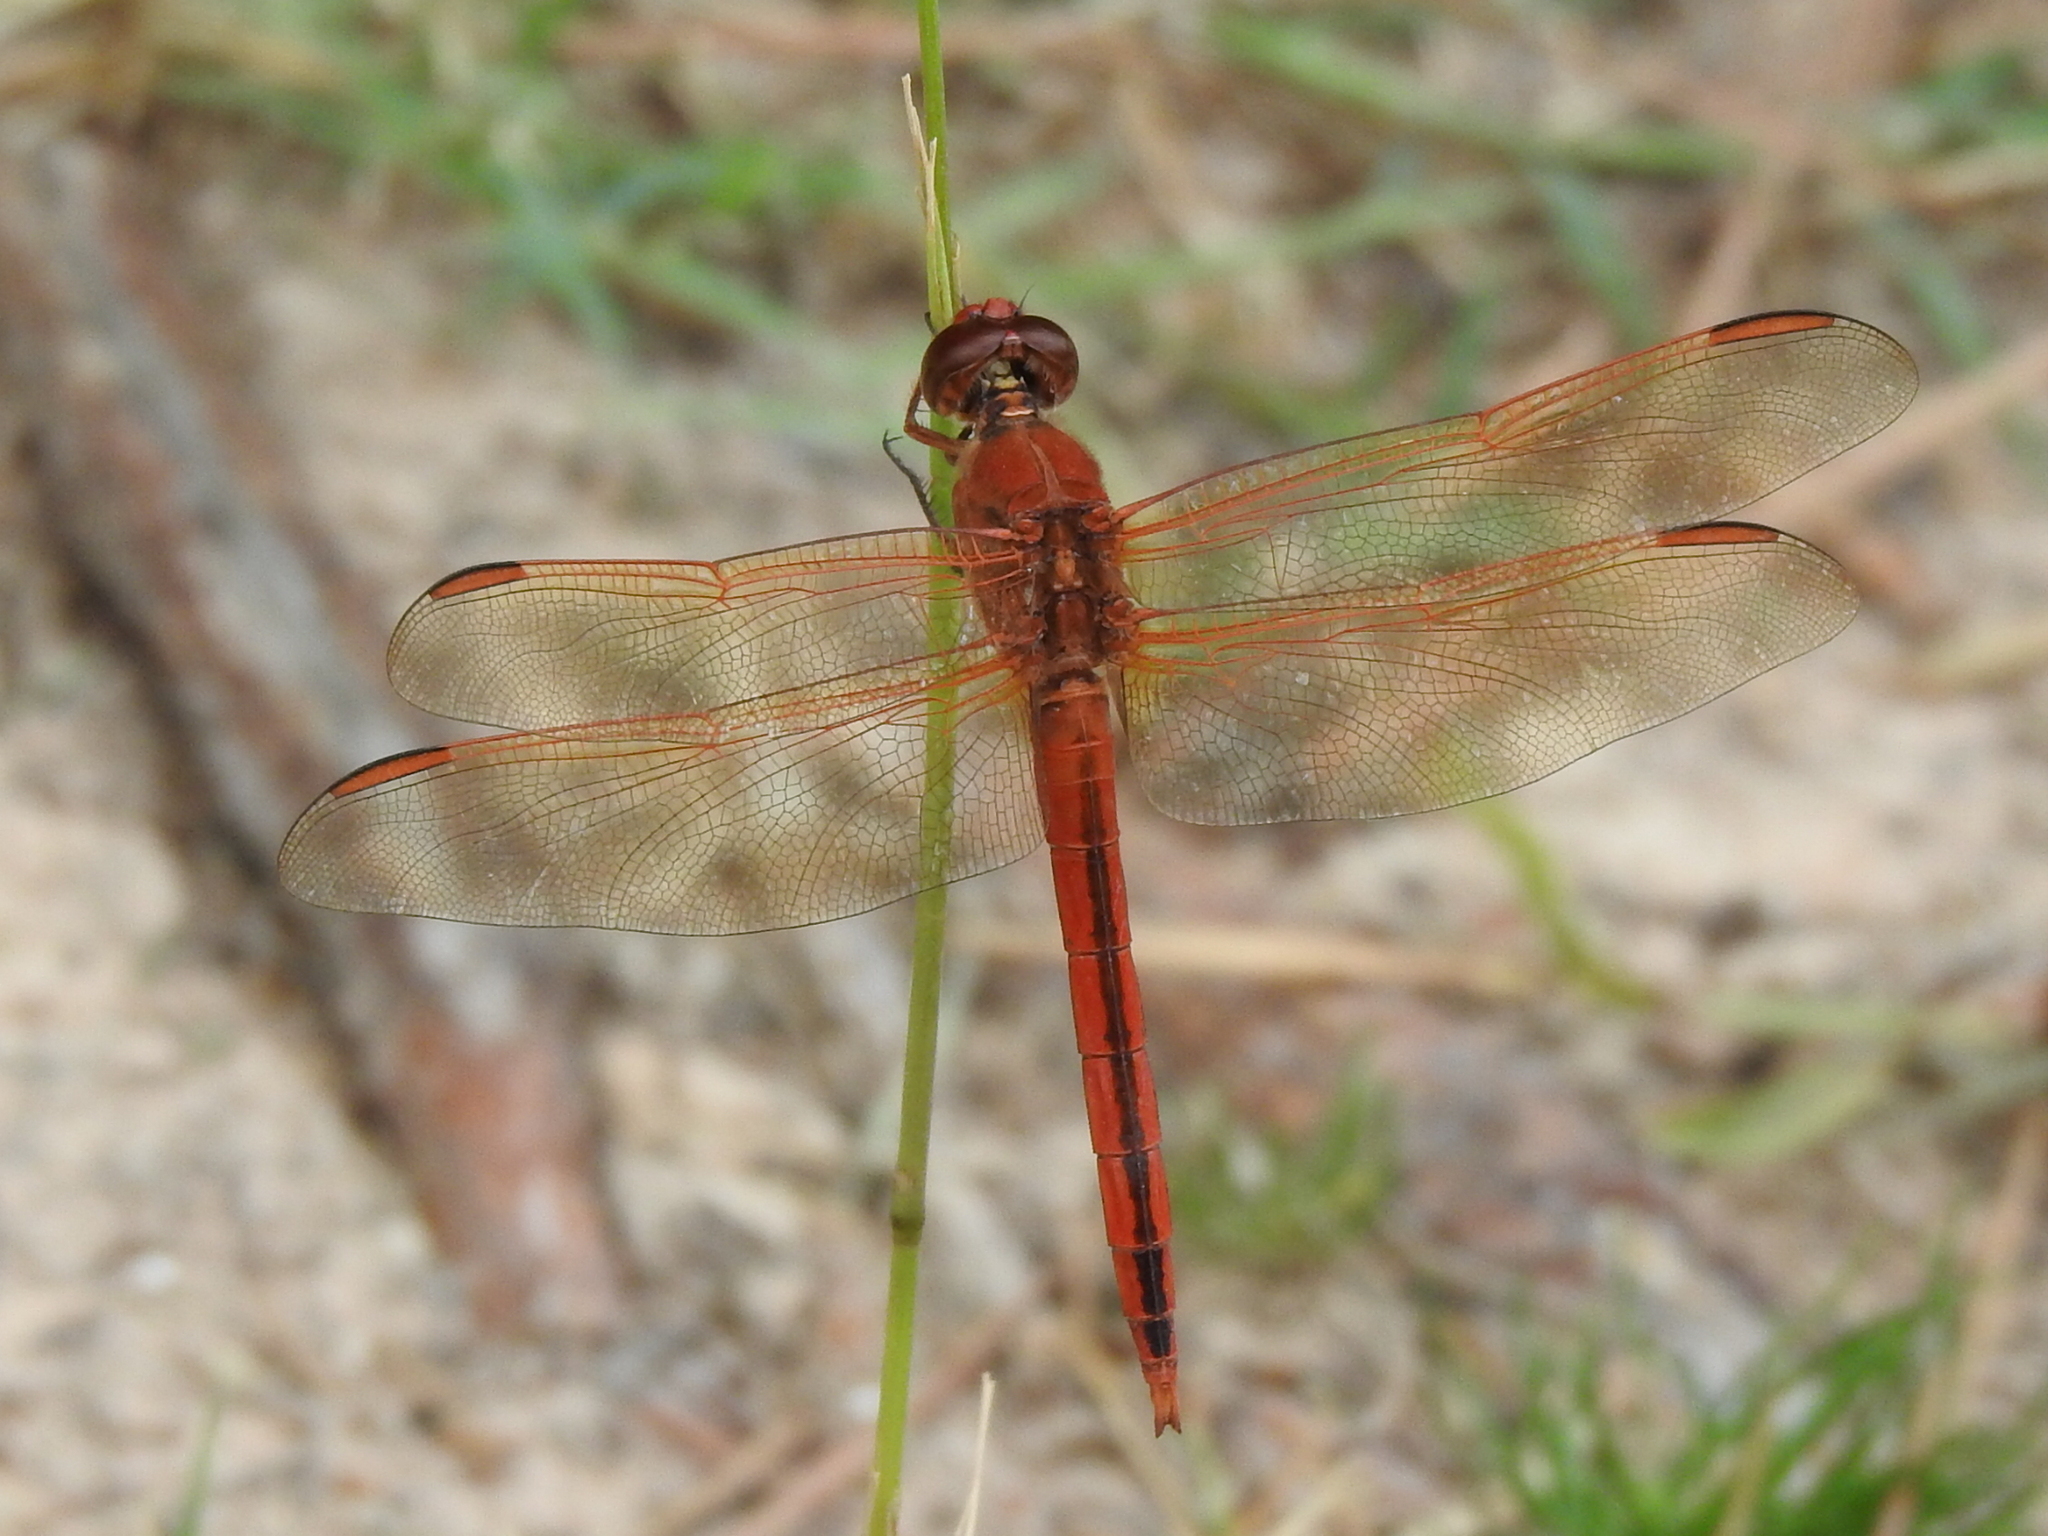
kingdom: Animalia
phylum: Arthropoda
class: Insecta
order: Odonata
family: Libellulidae
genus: Libellula
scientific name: Libellula needhami
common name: Needham's skimmer
